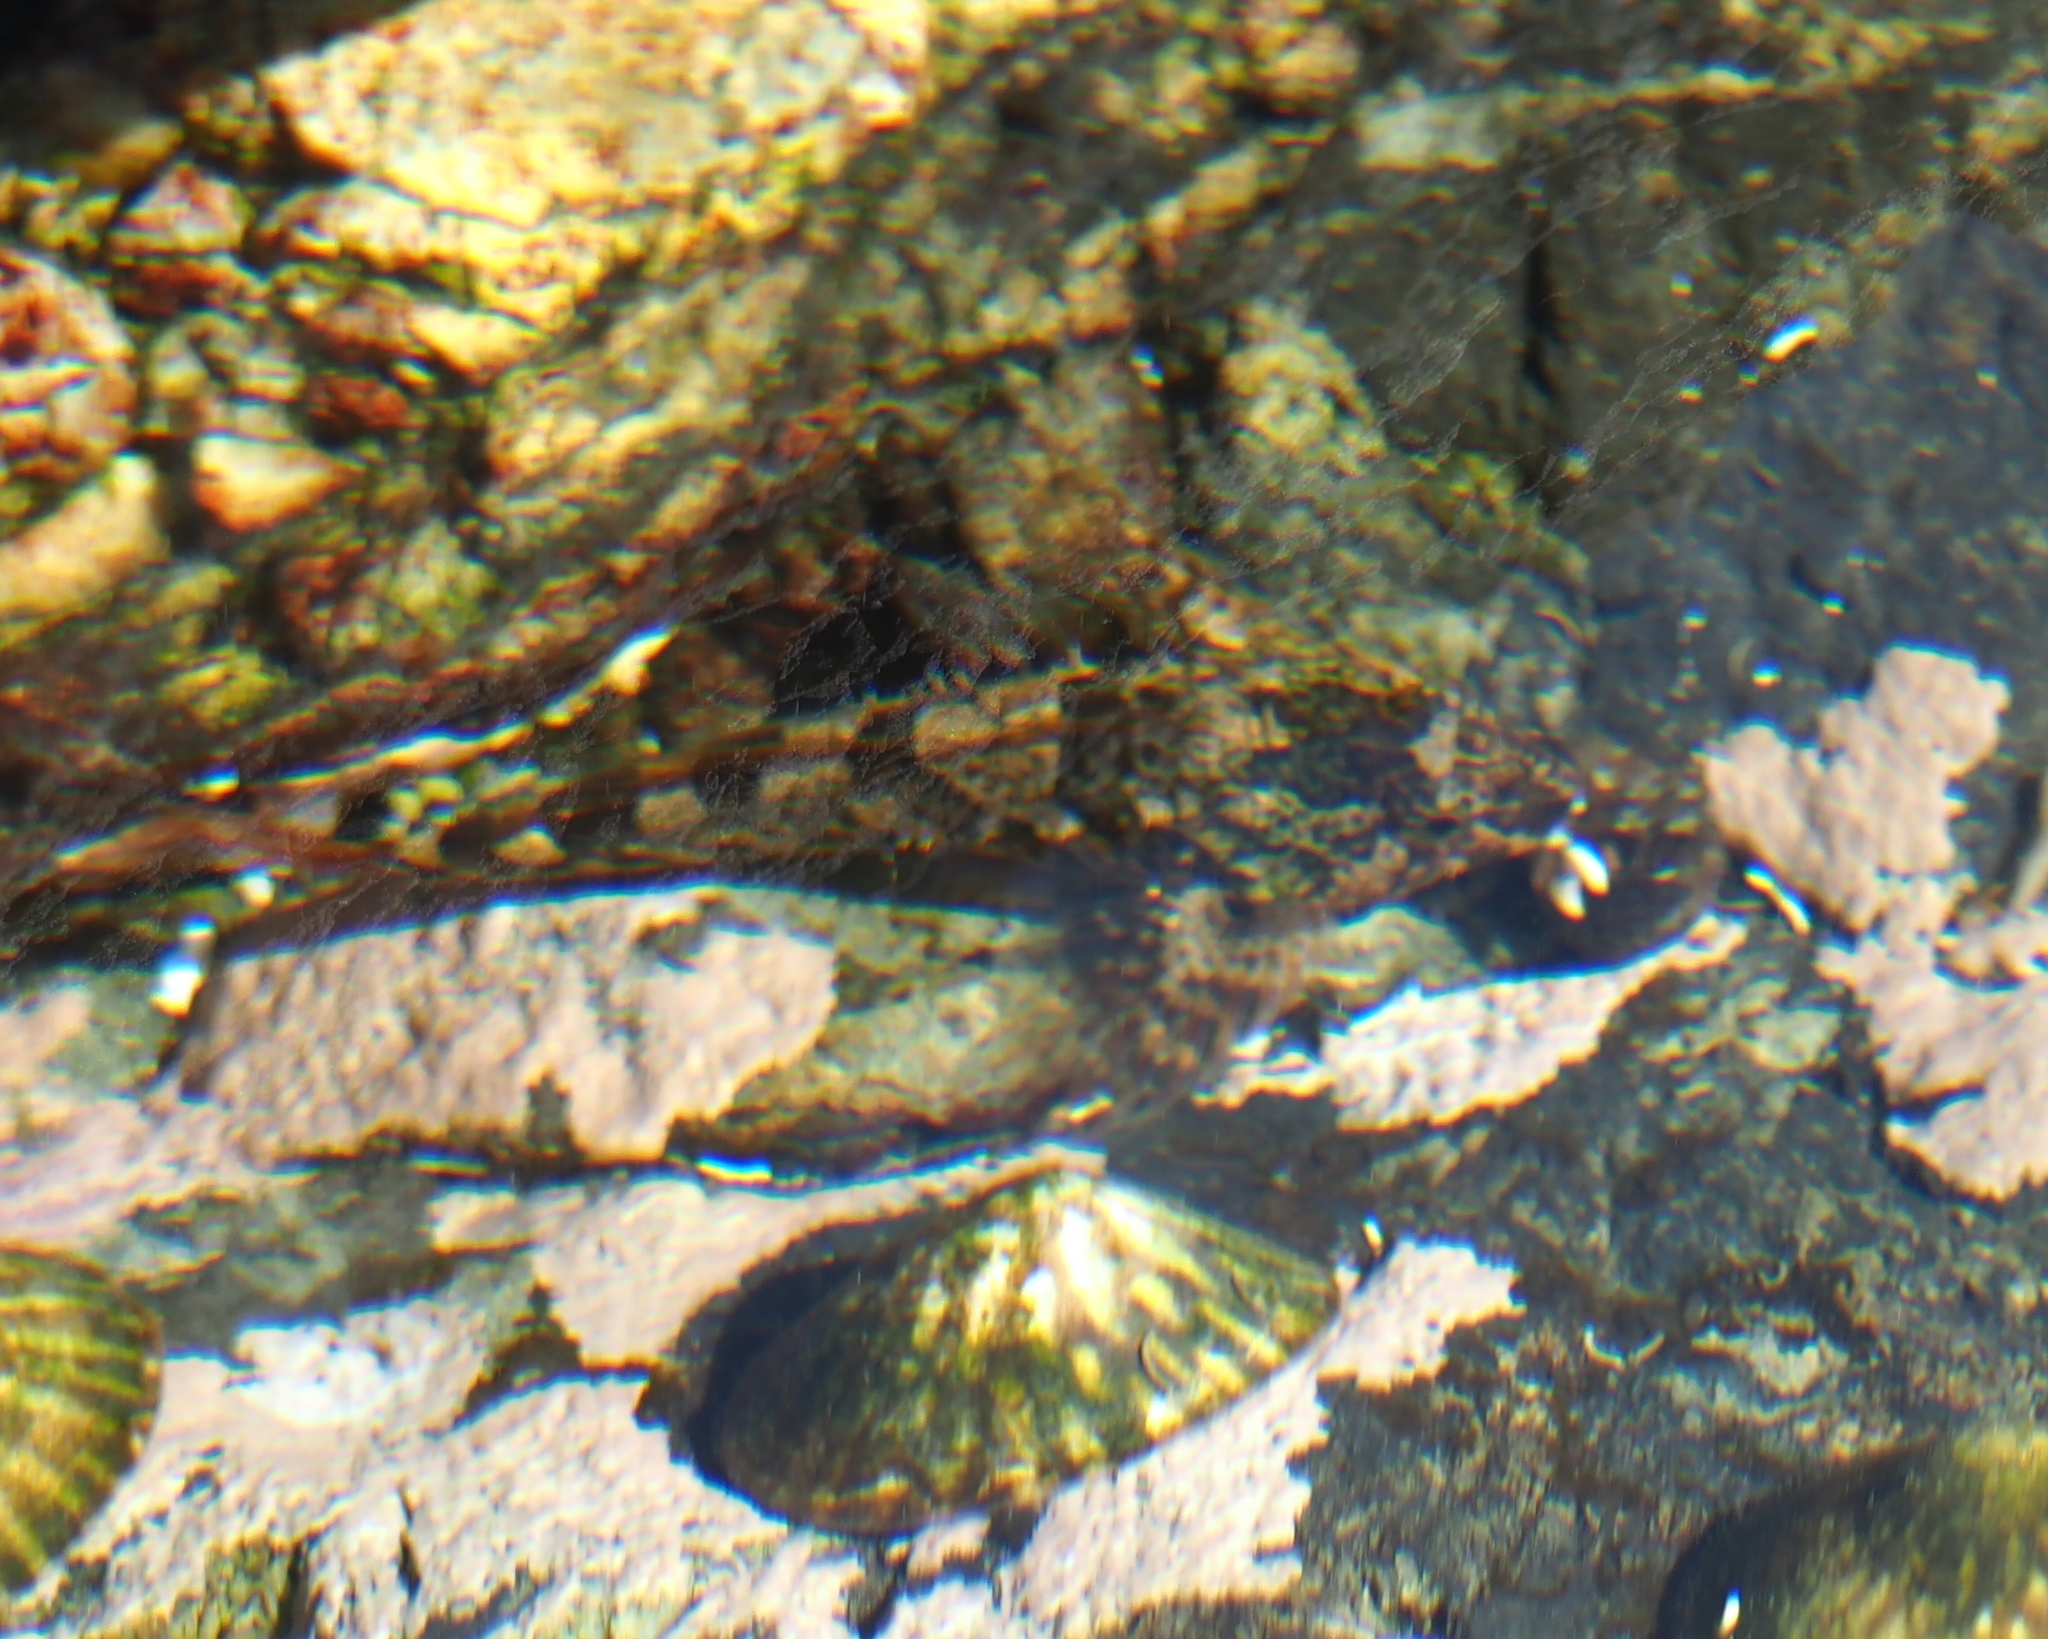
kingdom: Animalia
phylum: Chordata
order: Scorpaeniformes
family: Cottidae
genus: Oligocottus
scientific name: Oligocottus maculosus
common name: Tidepool sculpin
